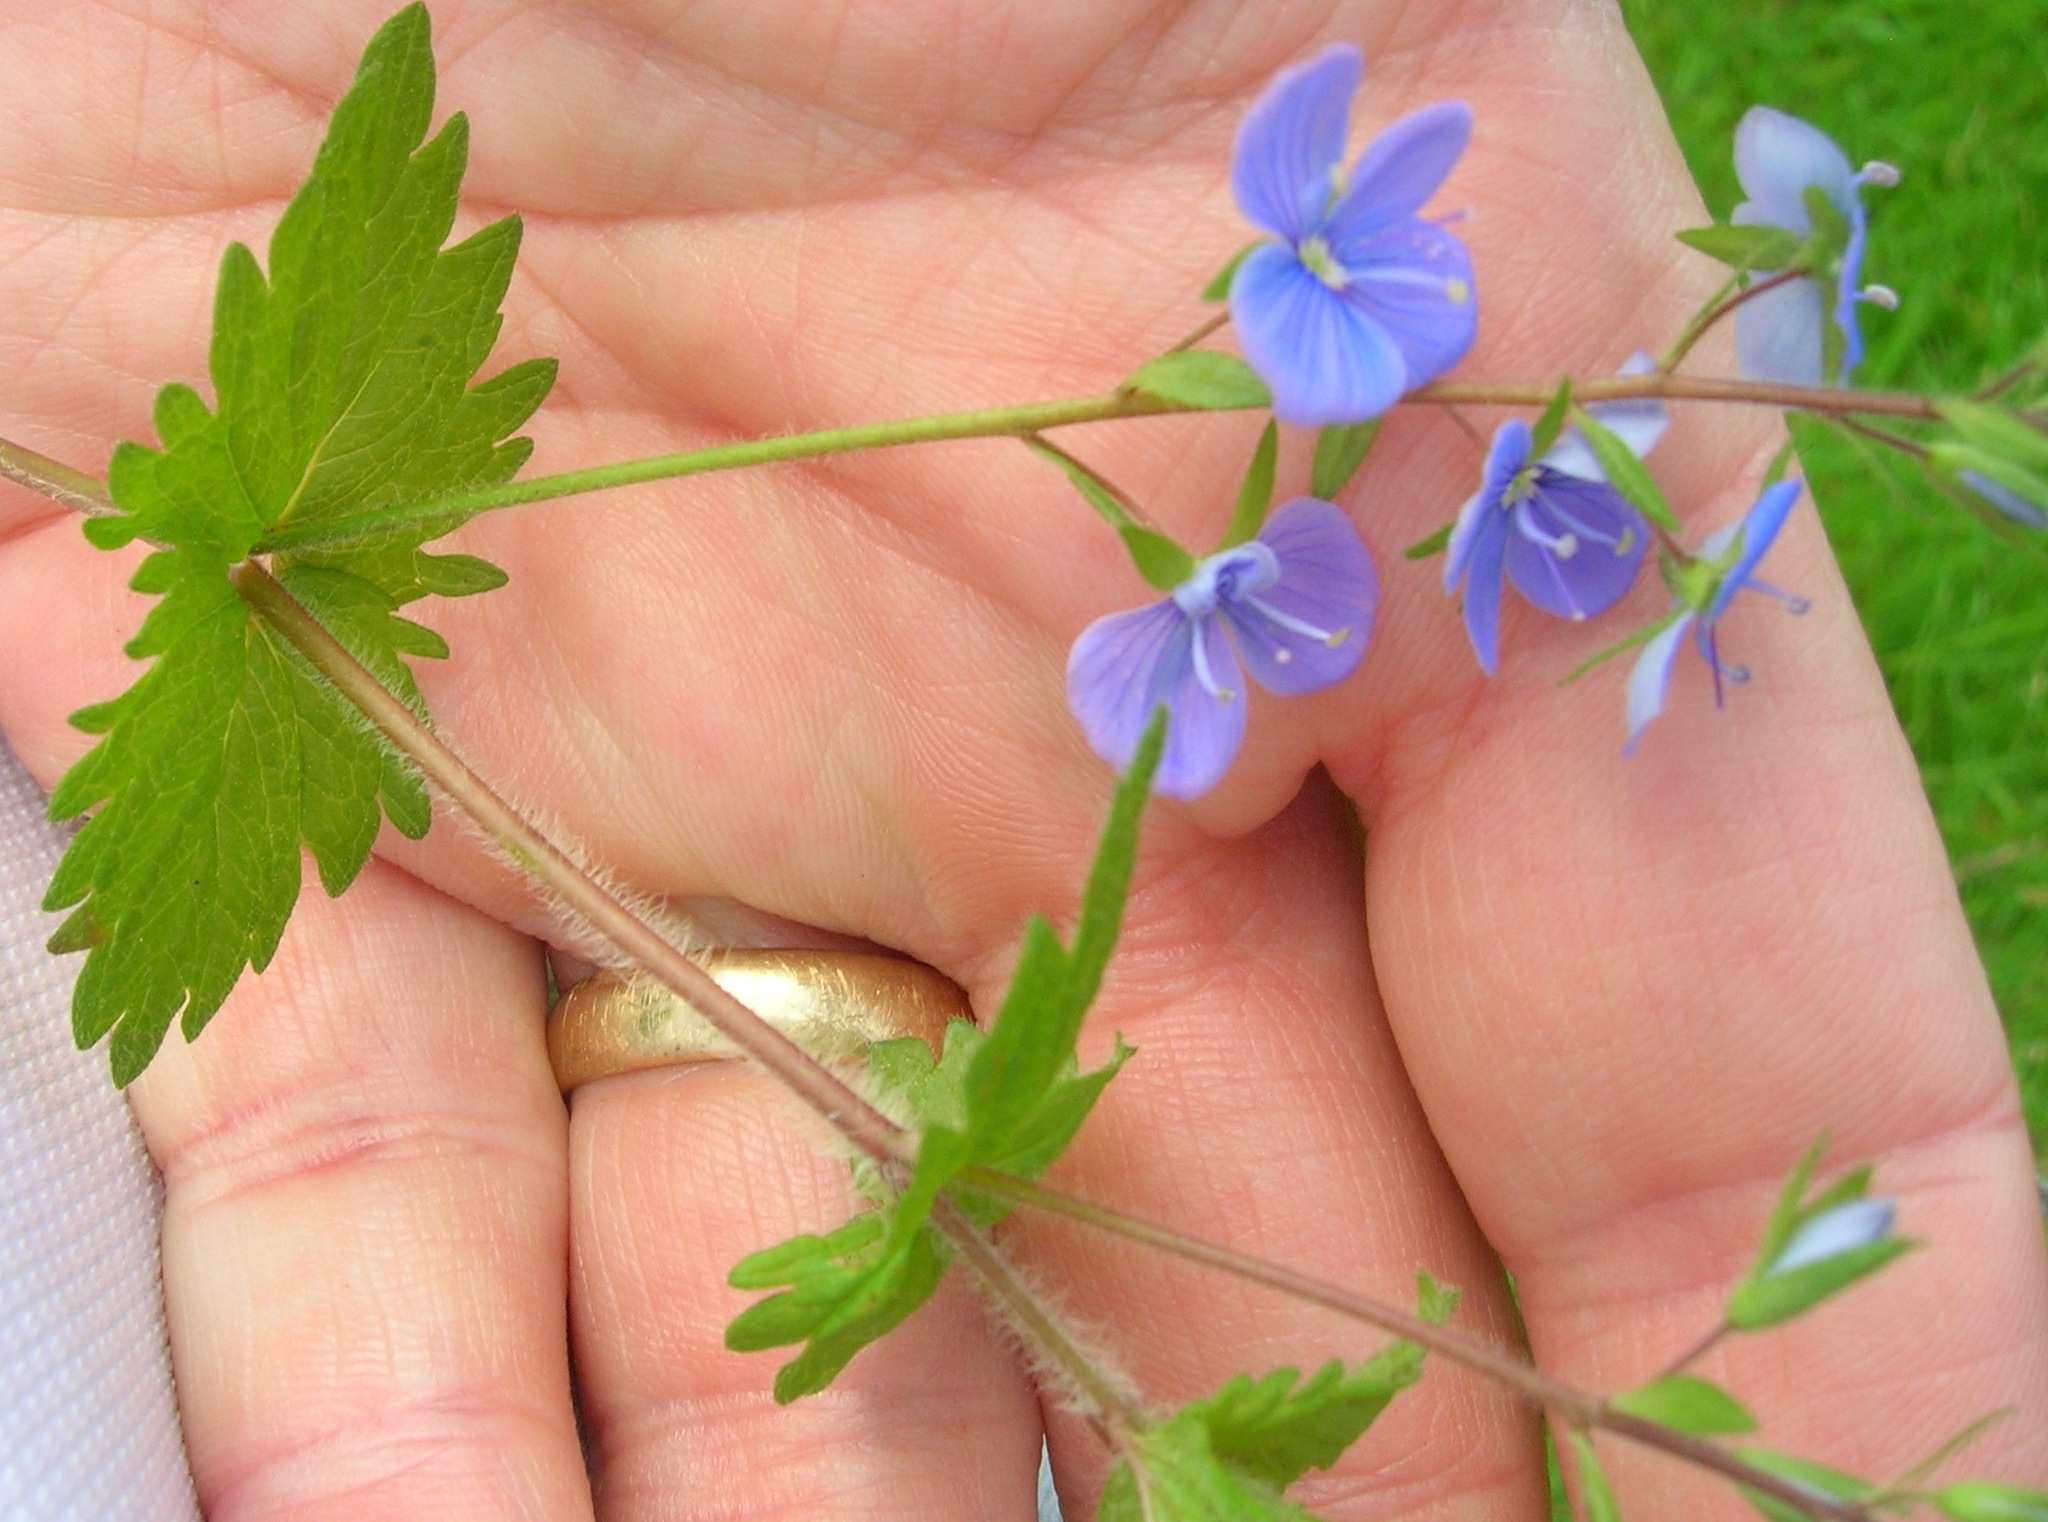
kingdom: Plantae
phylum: Tracheophyta
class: Magnoliopsida
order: Lamiales
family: Plantaginaceae
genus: Veronica
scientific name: Veronica chamaedrys
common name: Germander speedwell
